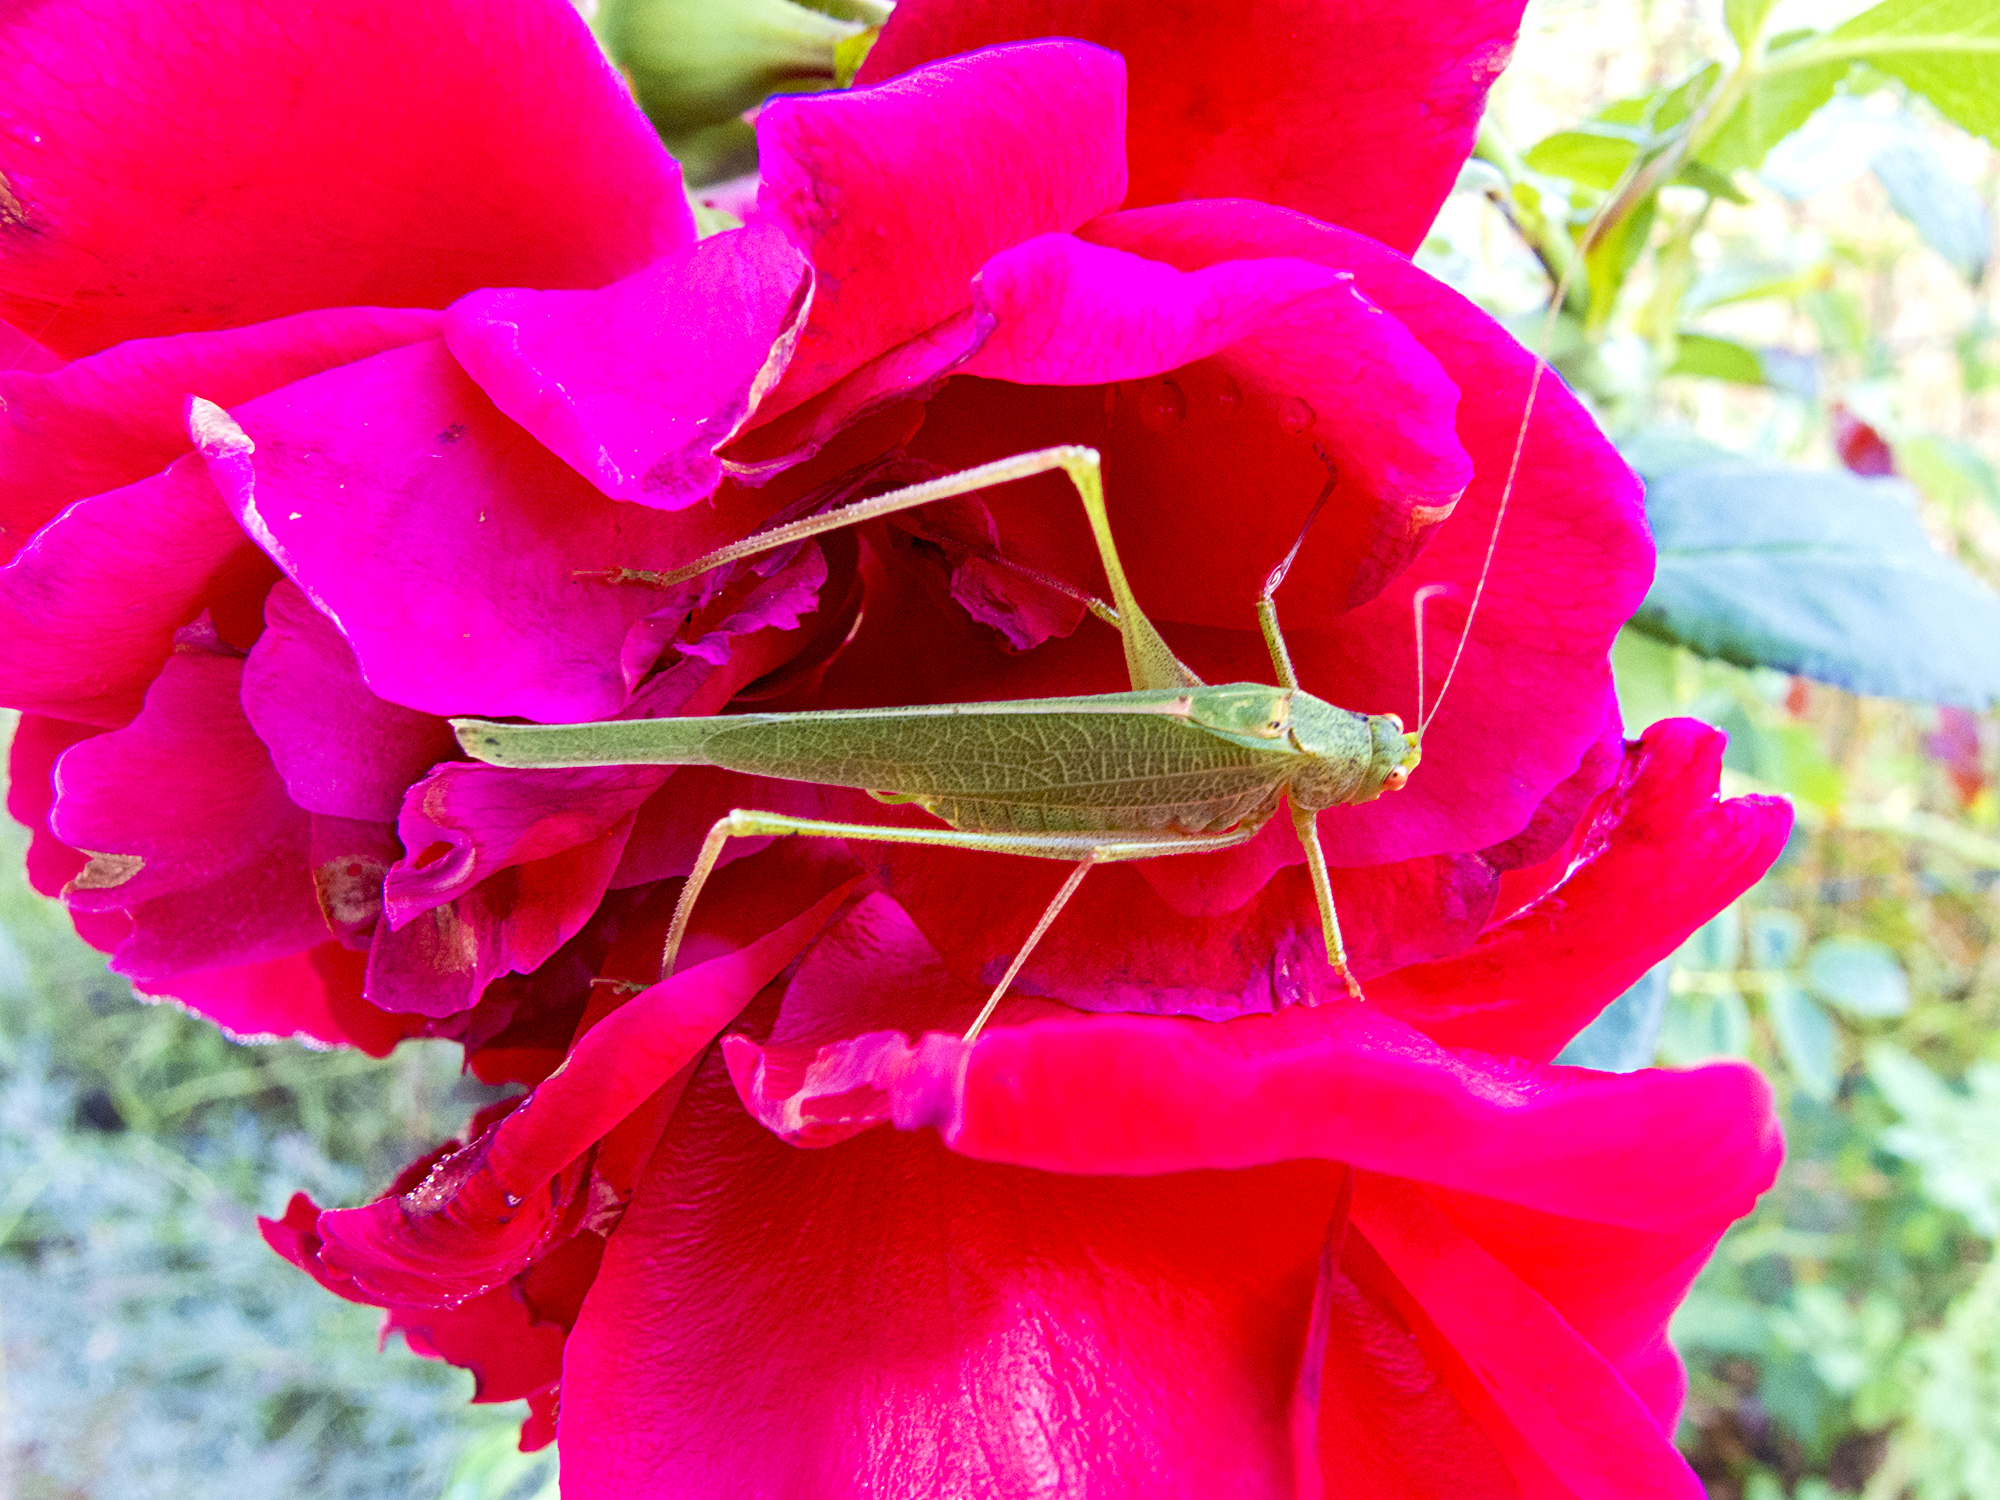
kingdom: Animalia
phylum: Arthropoda
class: Insecta
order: Orthoptera
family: Tettigoniidae
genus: Phaneroptera
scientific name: Phaneroptera nana
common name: Southern sickle bush-cricket
